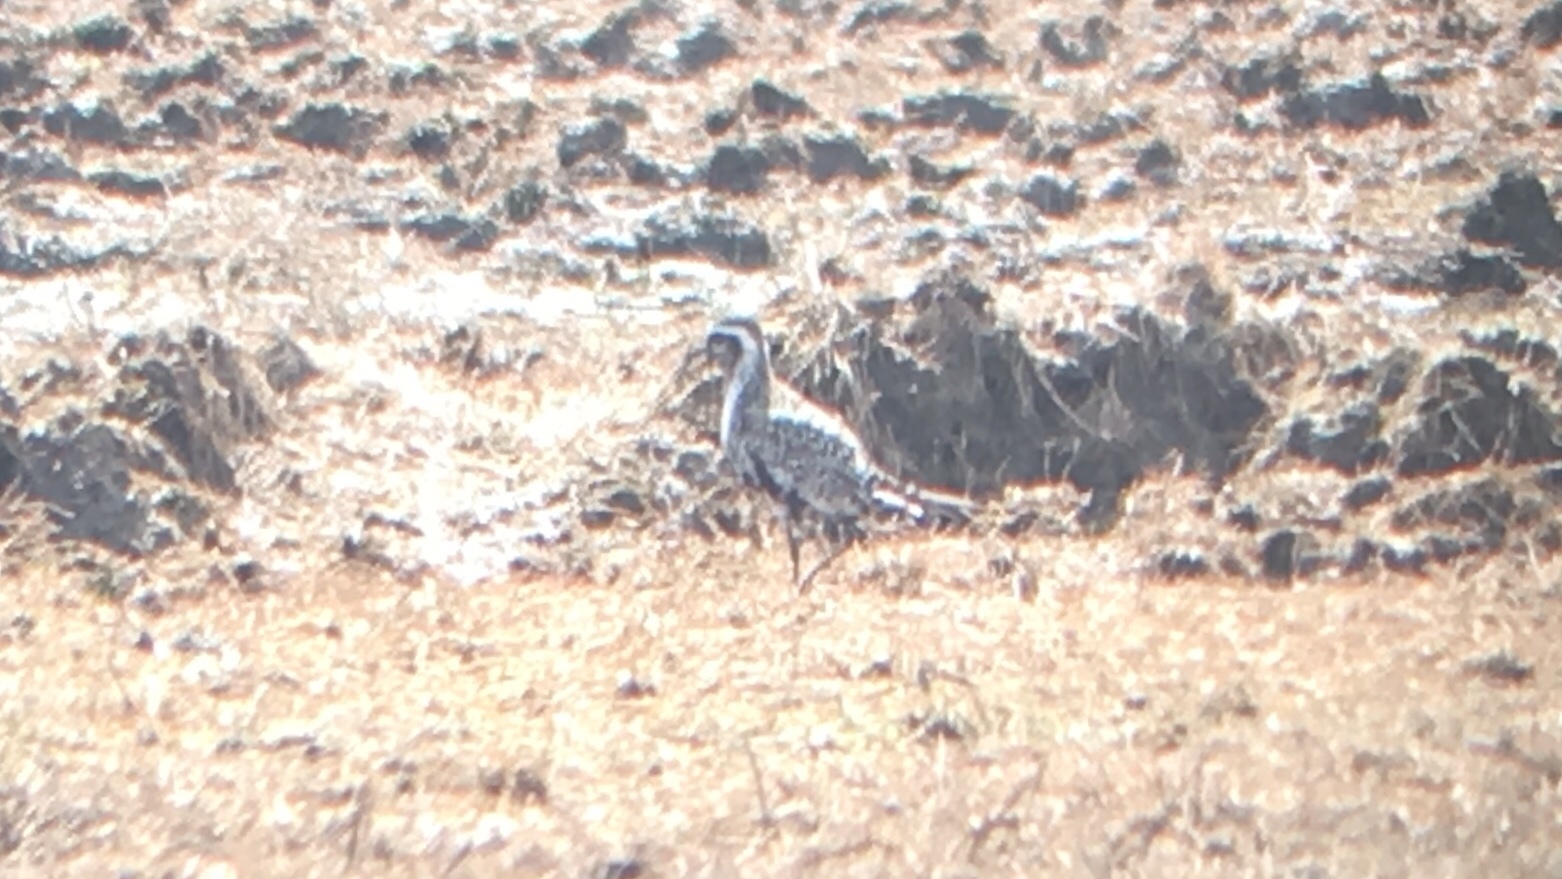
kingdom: Animalia
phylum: Chordata
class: Aves
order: Charadriiformes
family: Charadriidae
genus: Pluvialis
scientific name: Pluvialis dominica
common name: American golden plover
